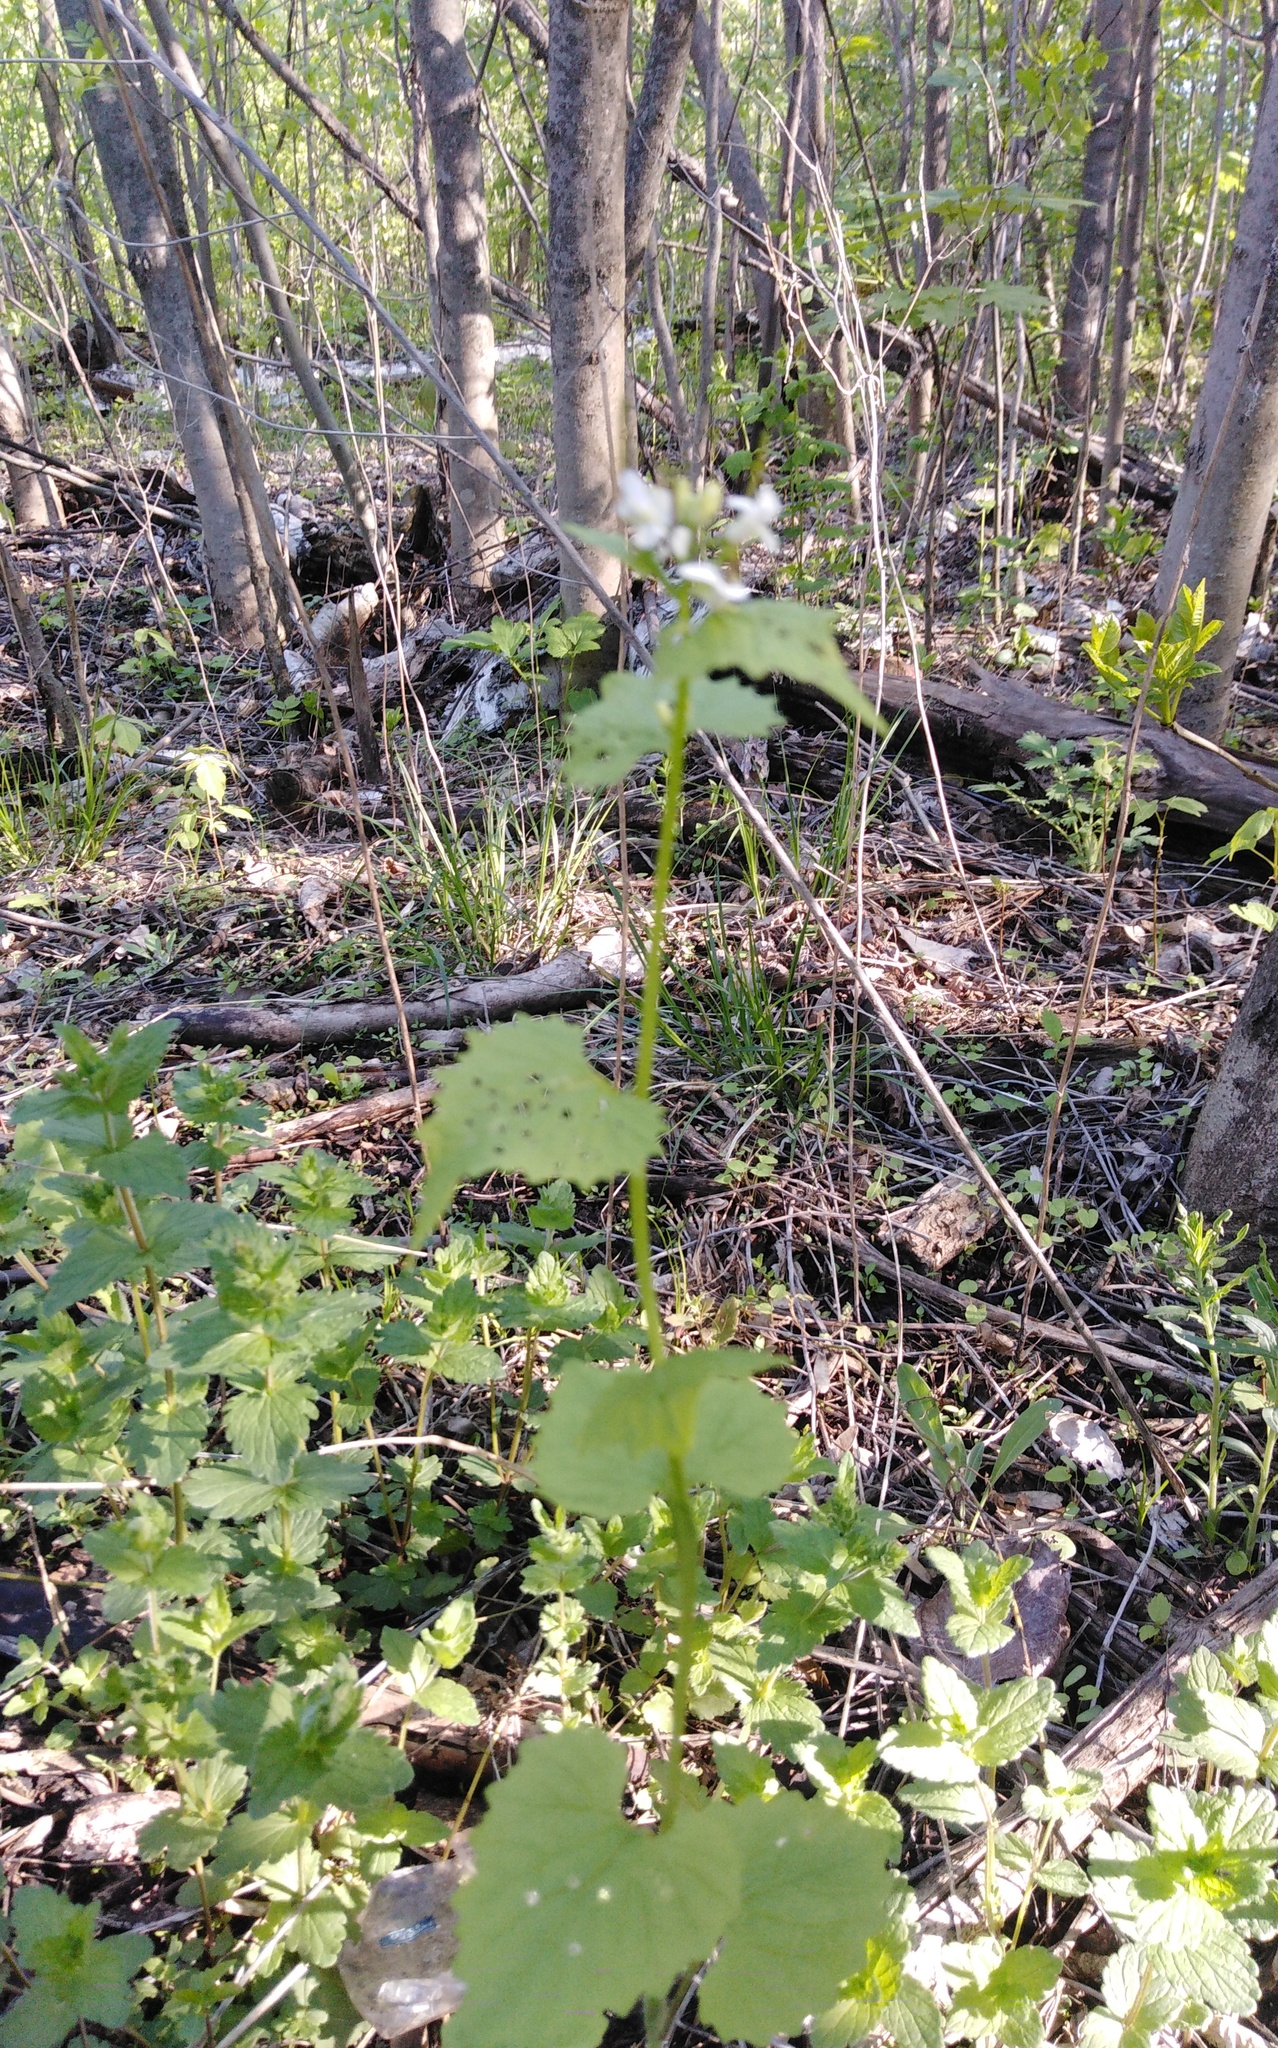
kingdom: Plantae
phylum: Tracheophyta
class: Magnoliopsida
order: Brassicales
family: Brassicaceae
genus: Alliaria
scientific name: Alliaria petiolata
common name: Garlic mustard
